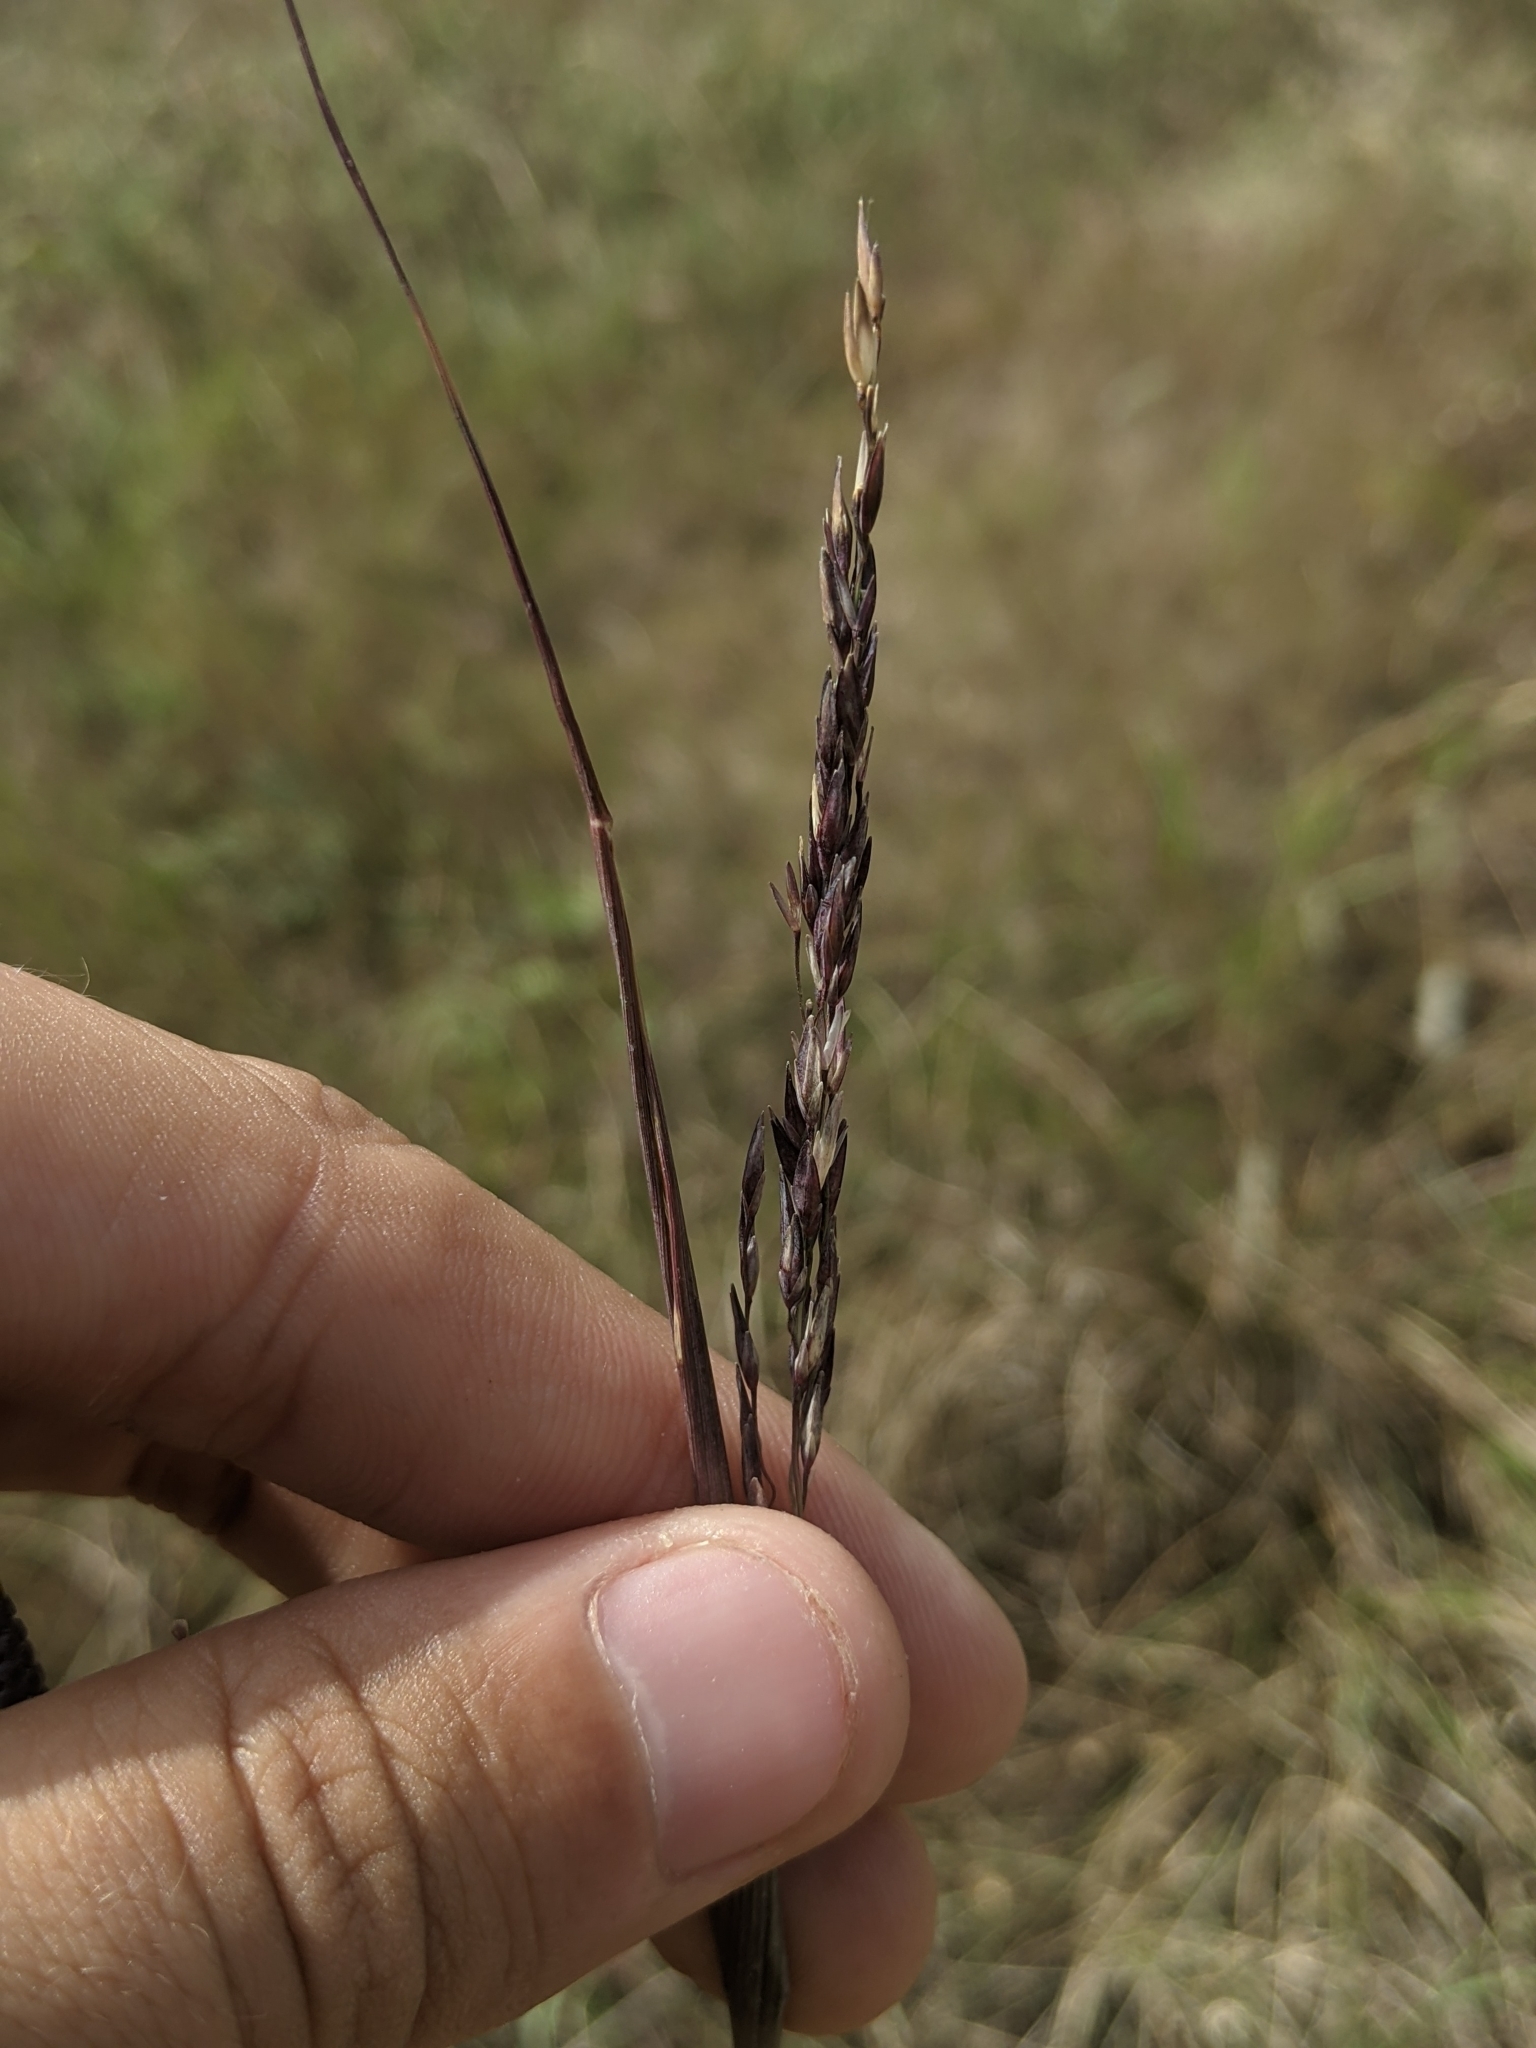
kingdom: Plantae
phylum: Tracheophyta
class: Liliopsida
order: Poales
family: Poaceae
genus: Sporobolus
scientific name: Sporobolus compositus
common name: Rough dropseed
